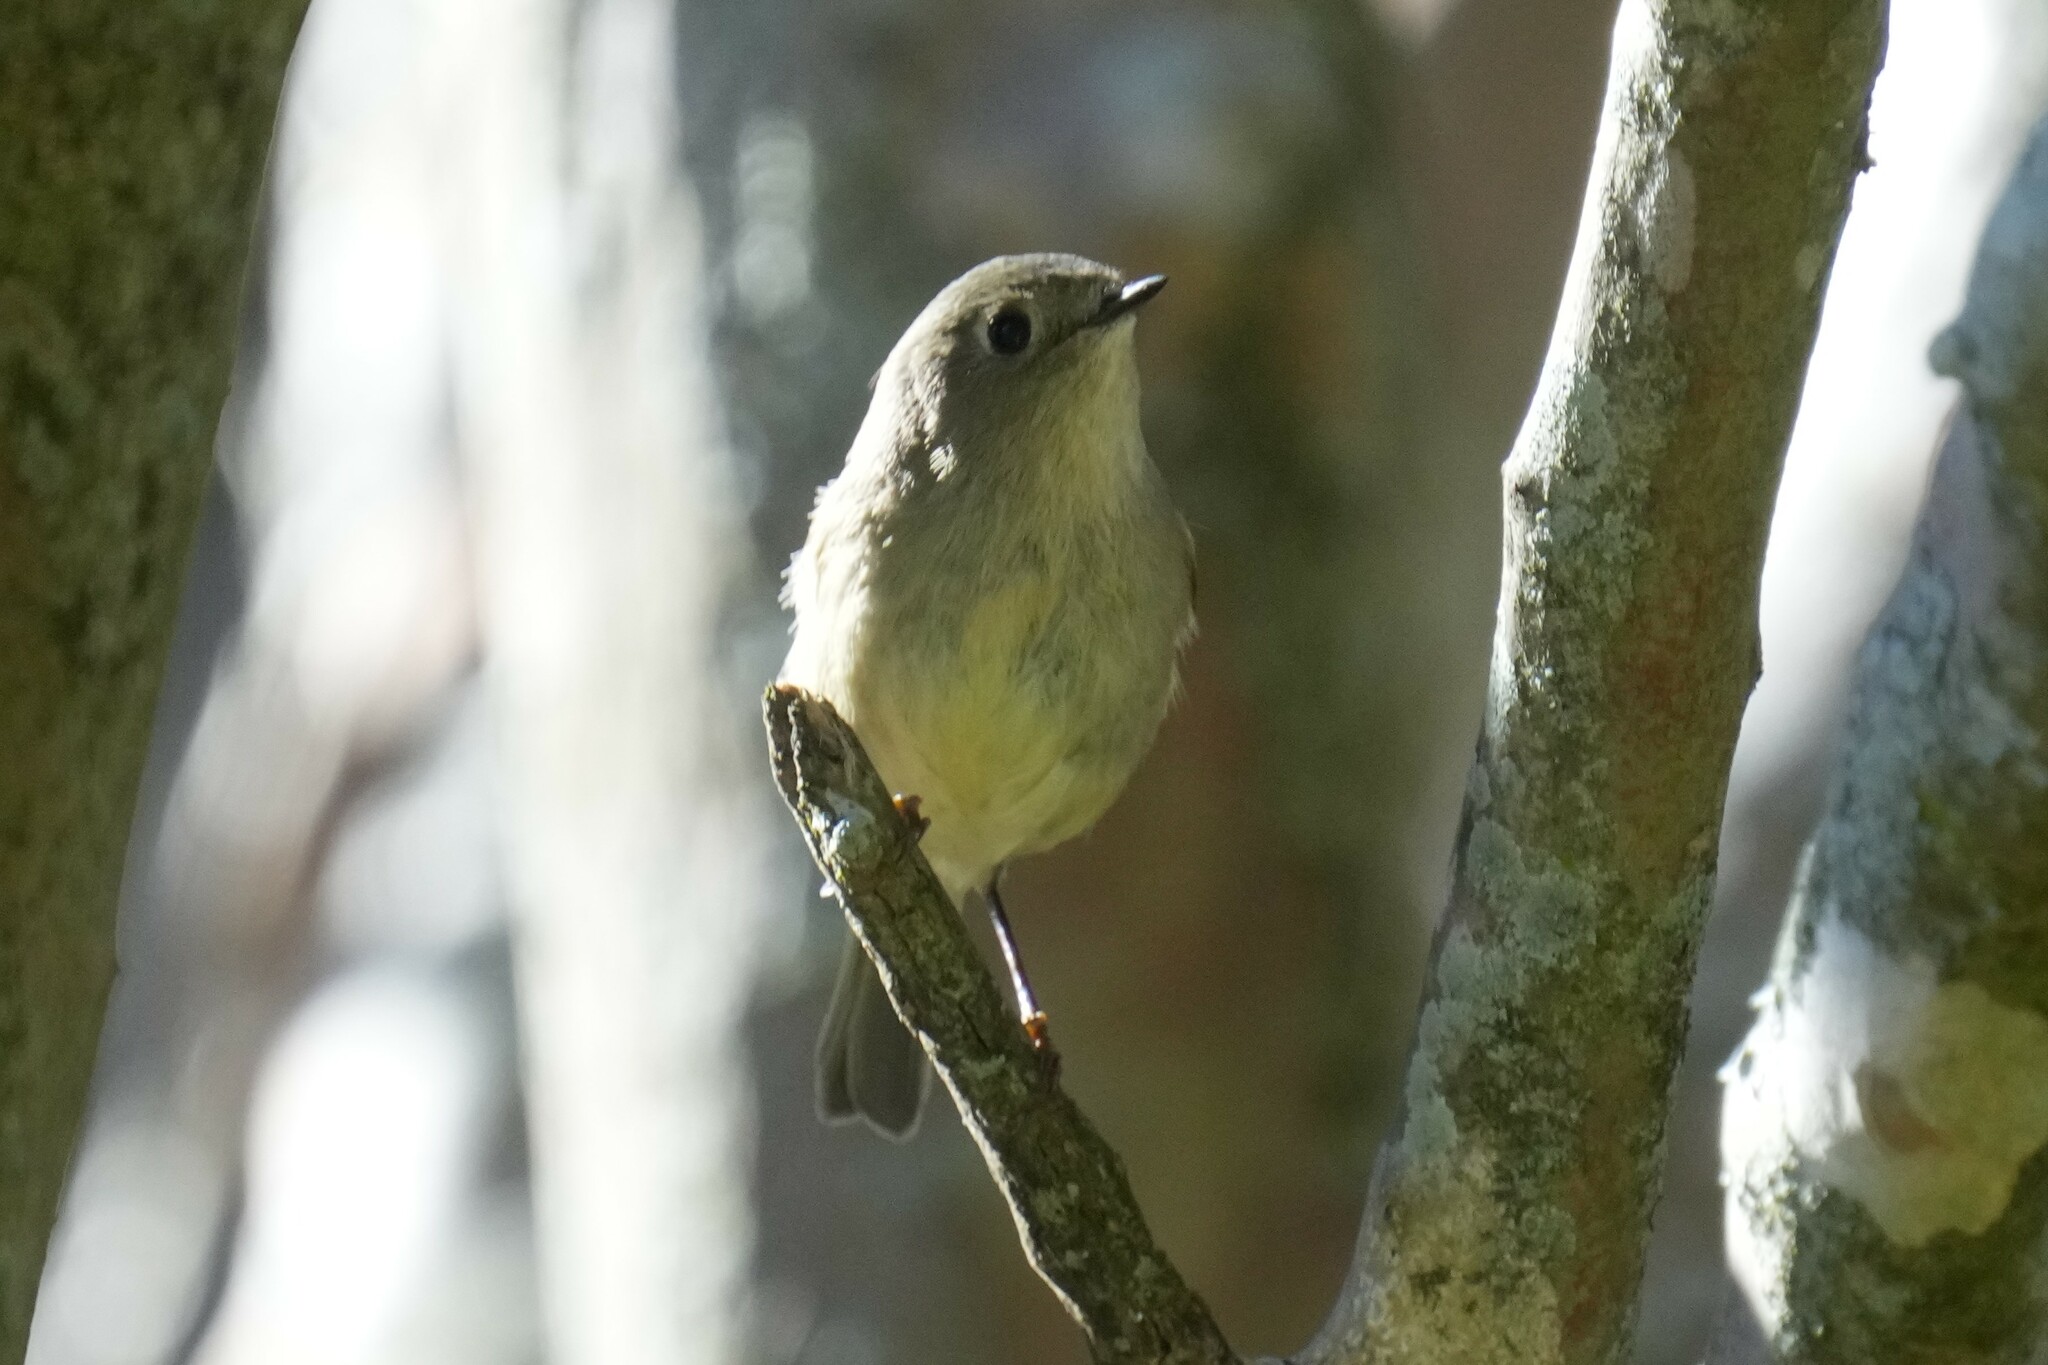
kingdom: Animalia
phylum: Chordata
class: Aves
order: Passeriformes
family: Regulidae
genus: Regulus
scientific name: Regulus calendula
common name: Ruby-crowned kinglet
